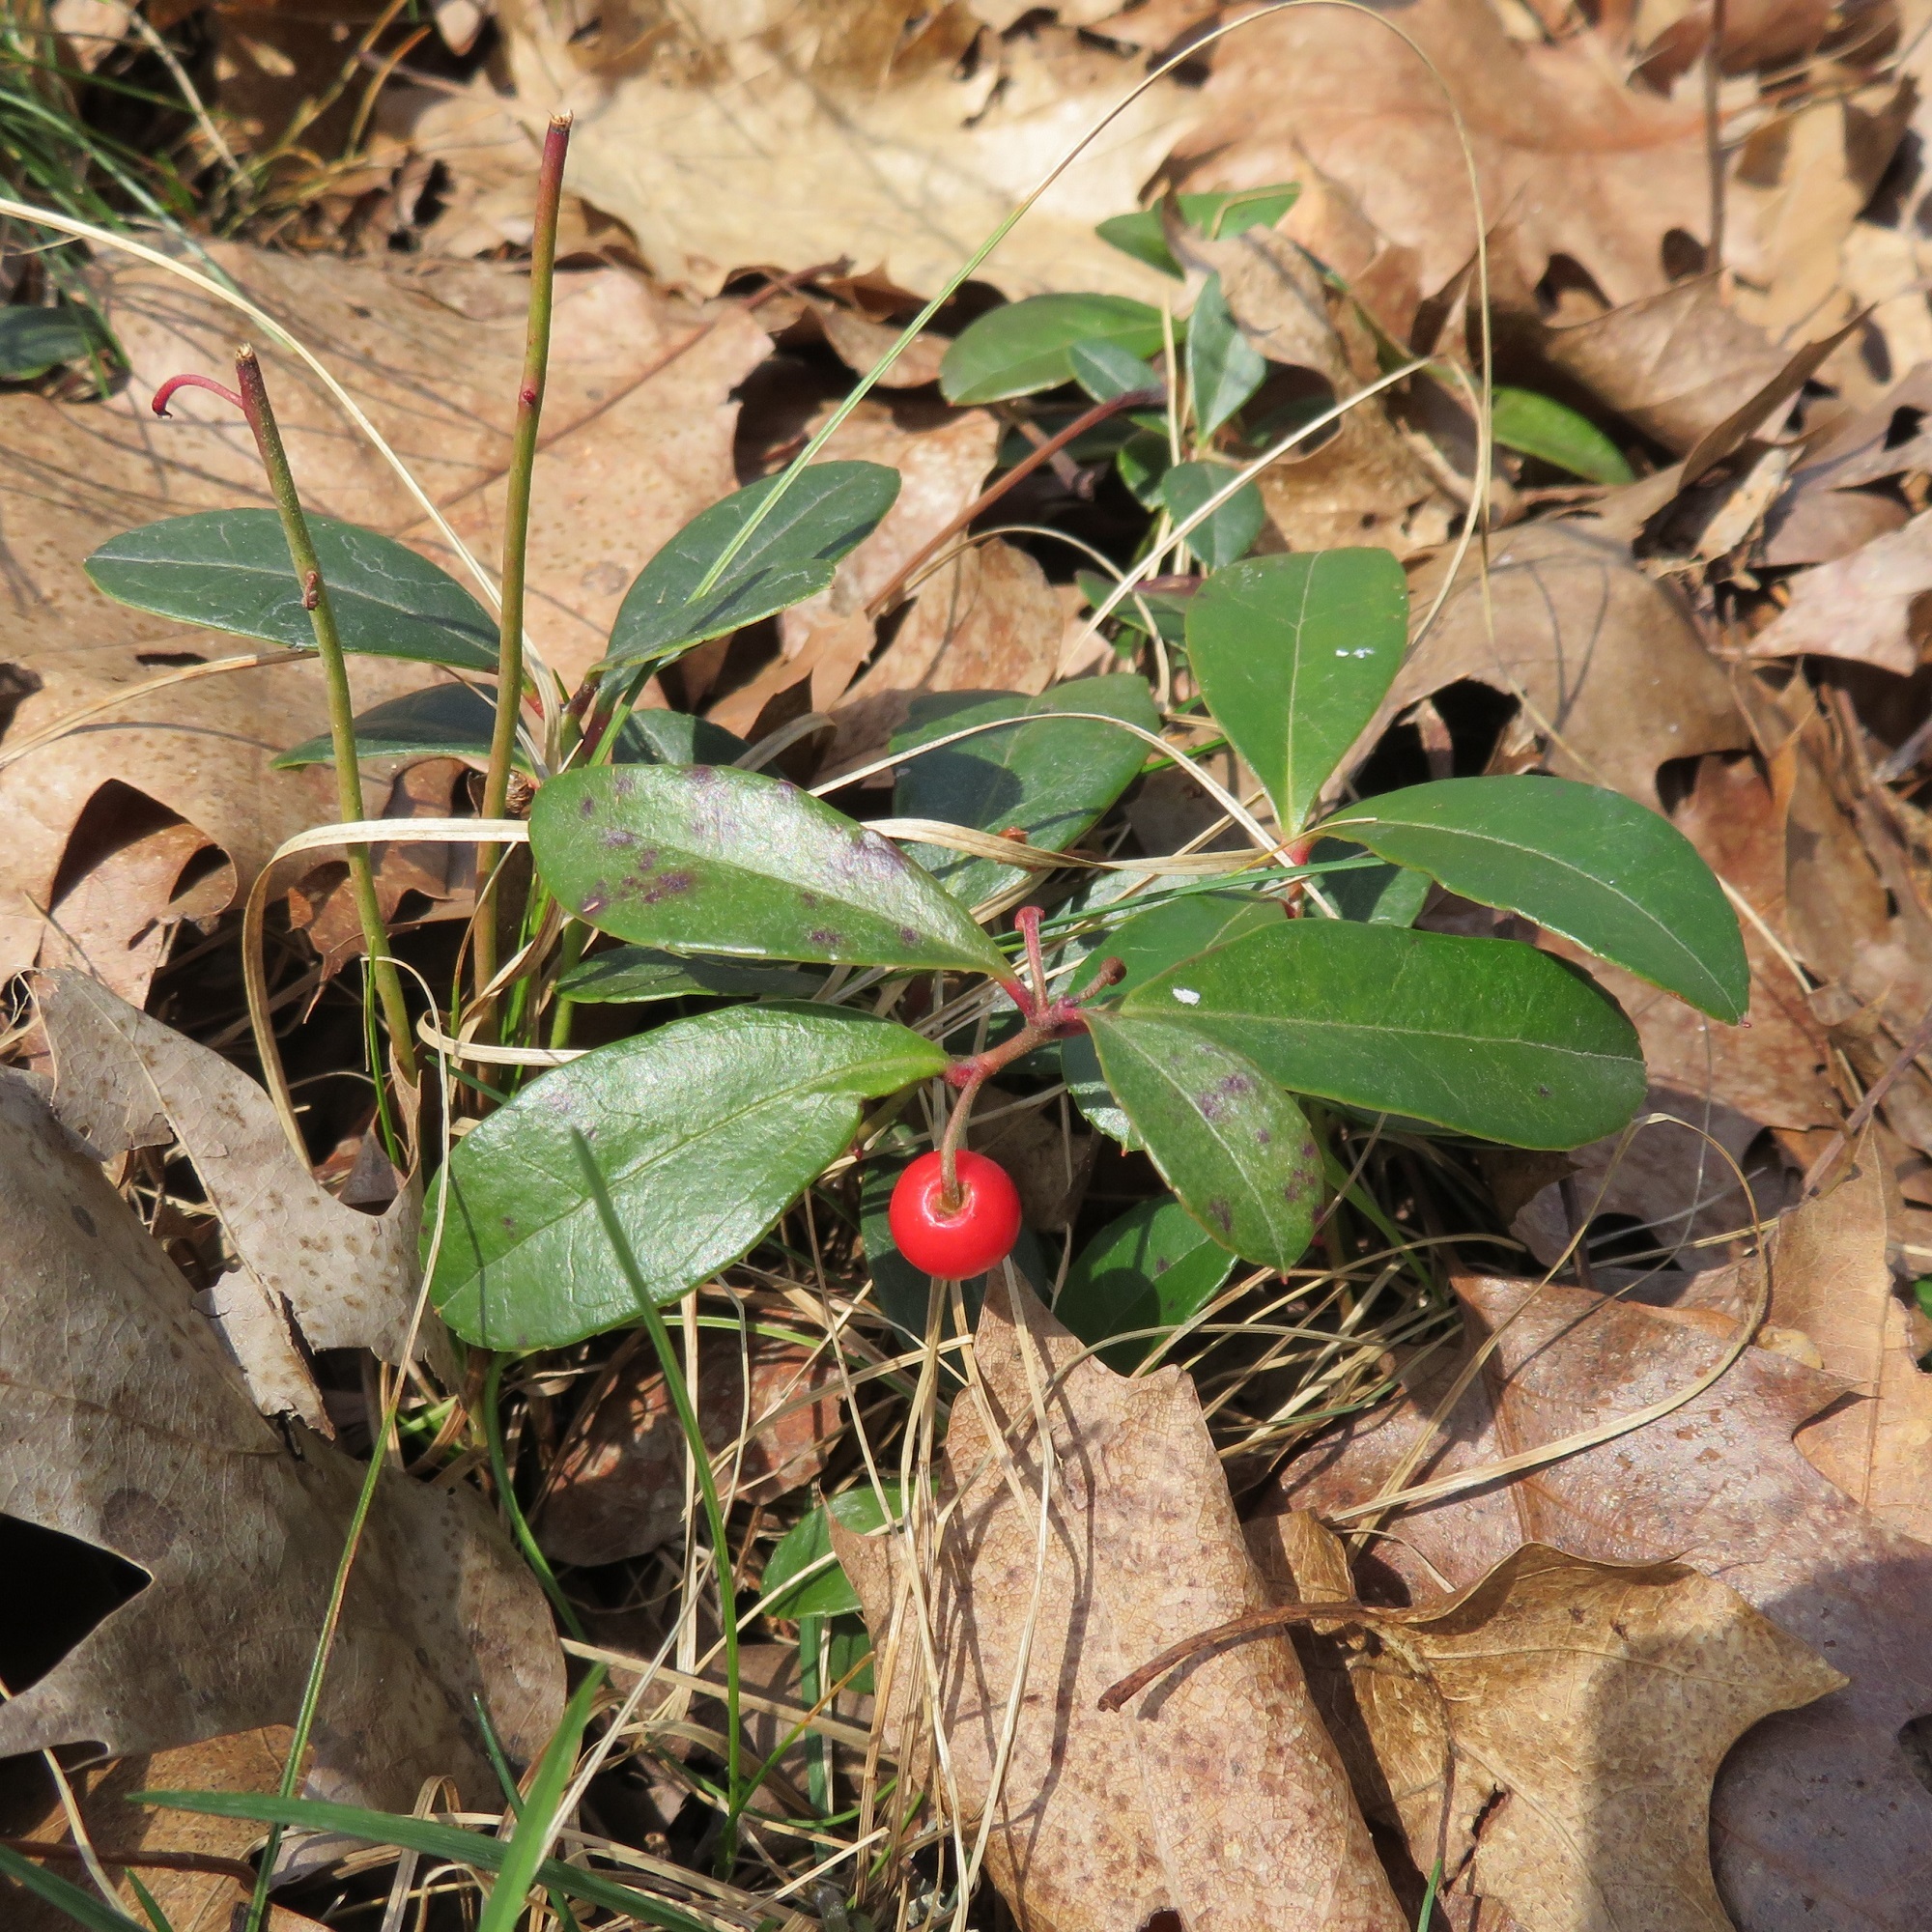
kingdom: Plantae
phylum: Tracheophyta
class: Magnoliopsida
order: Ericales
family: Ericaceae
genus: Gaultheria
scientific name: Gaultheria procumbens
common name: Checkerberry
